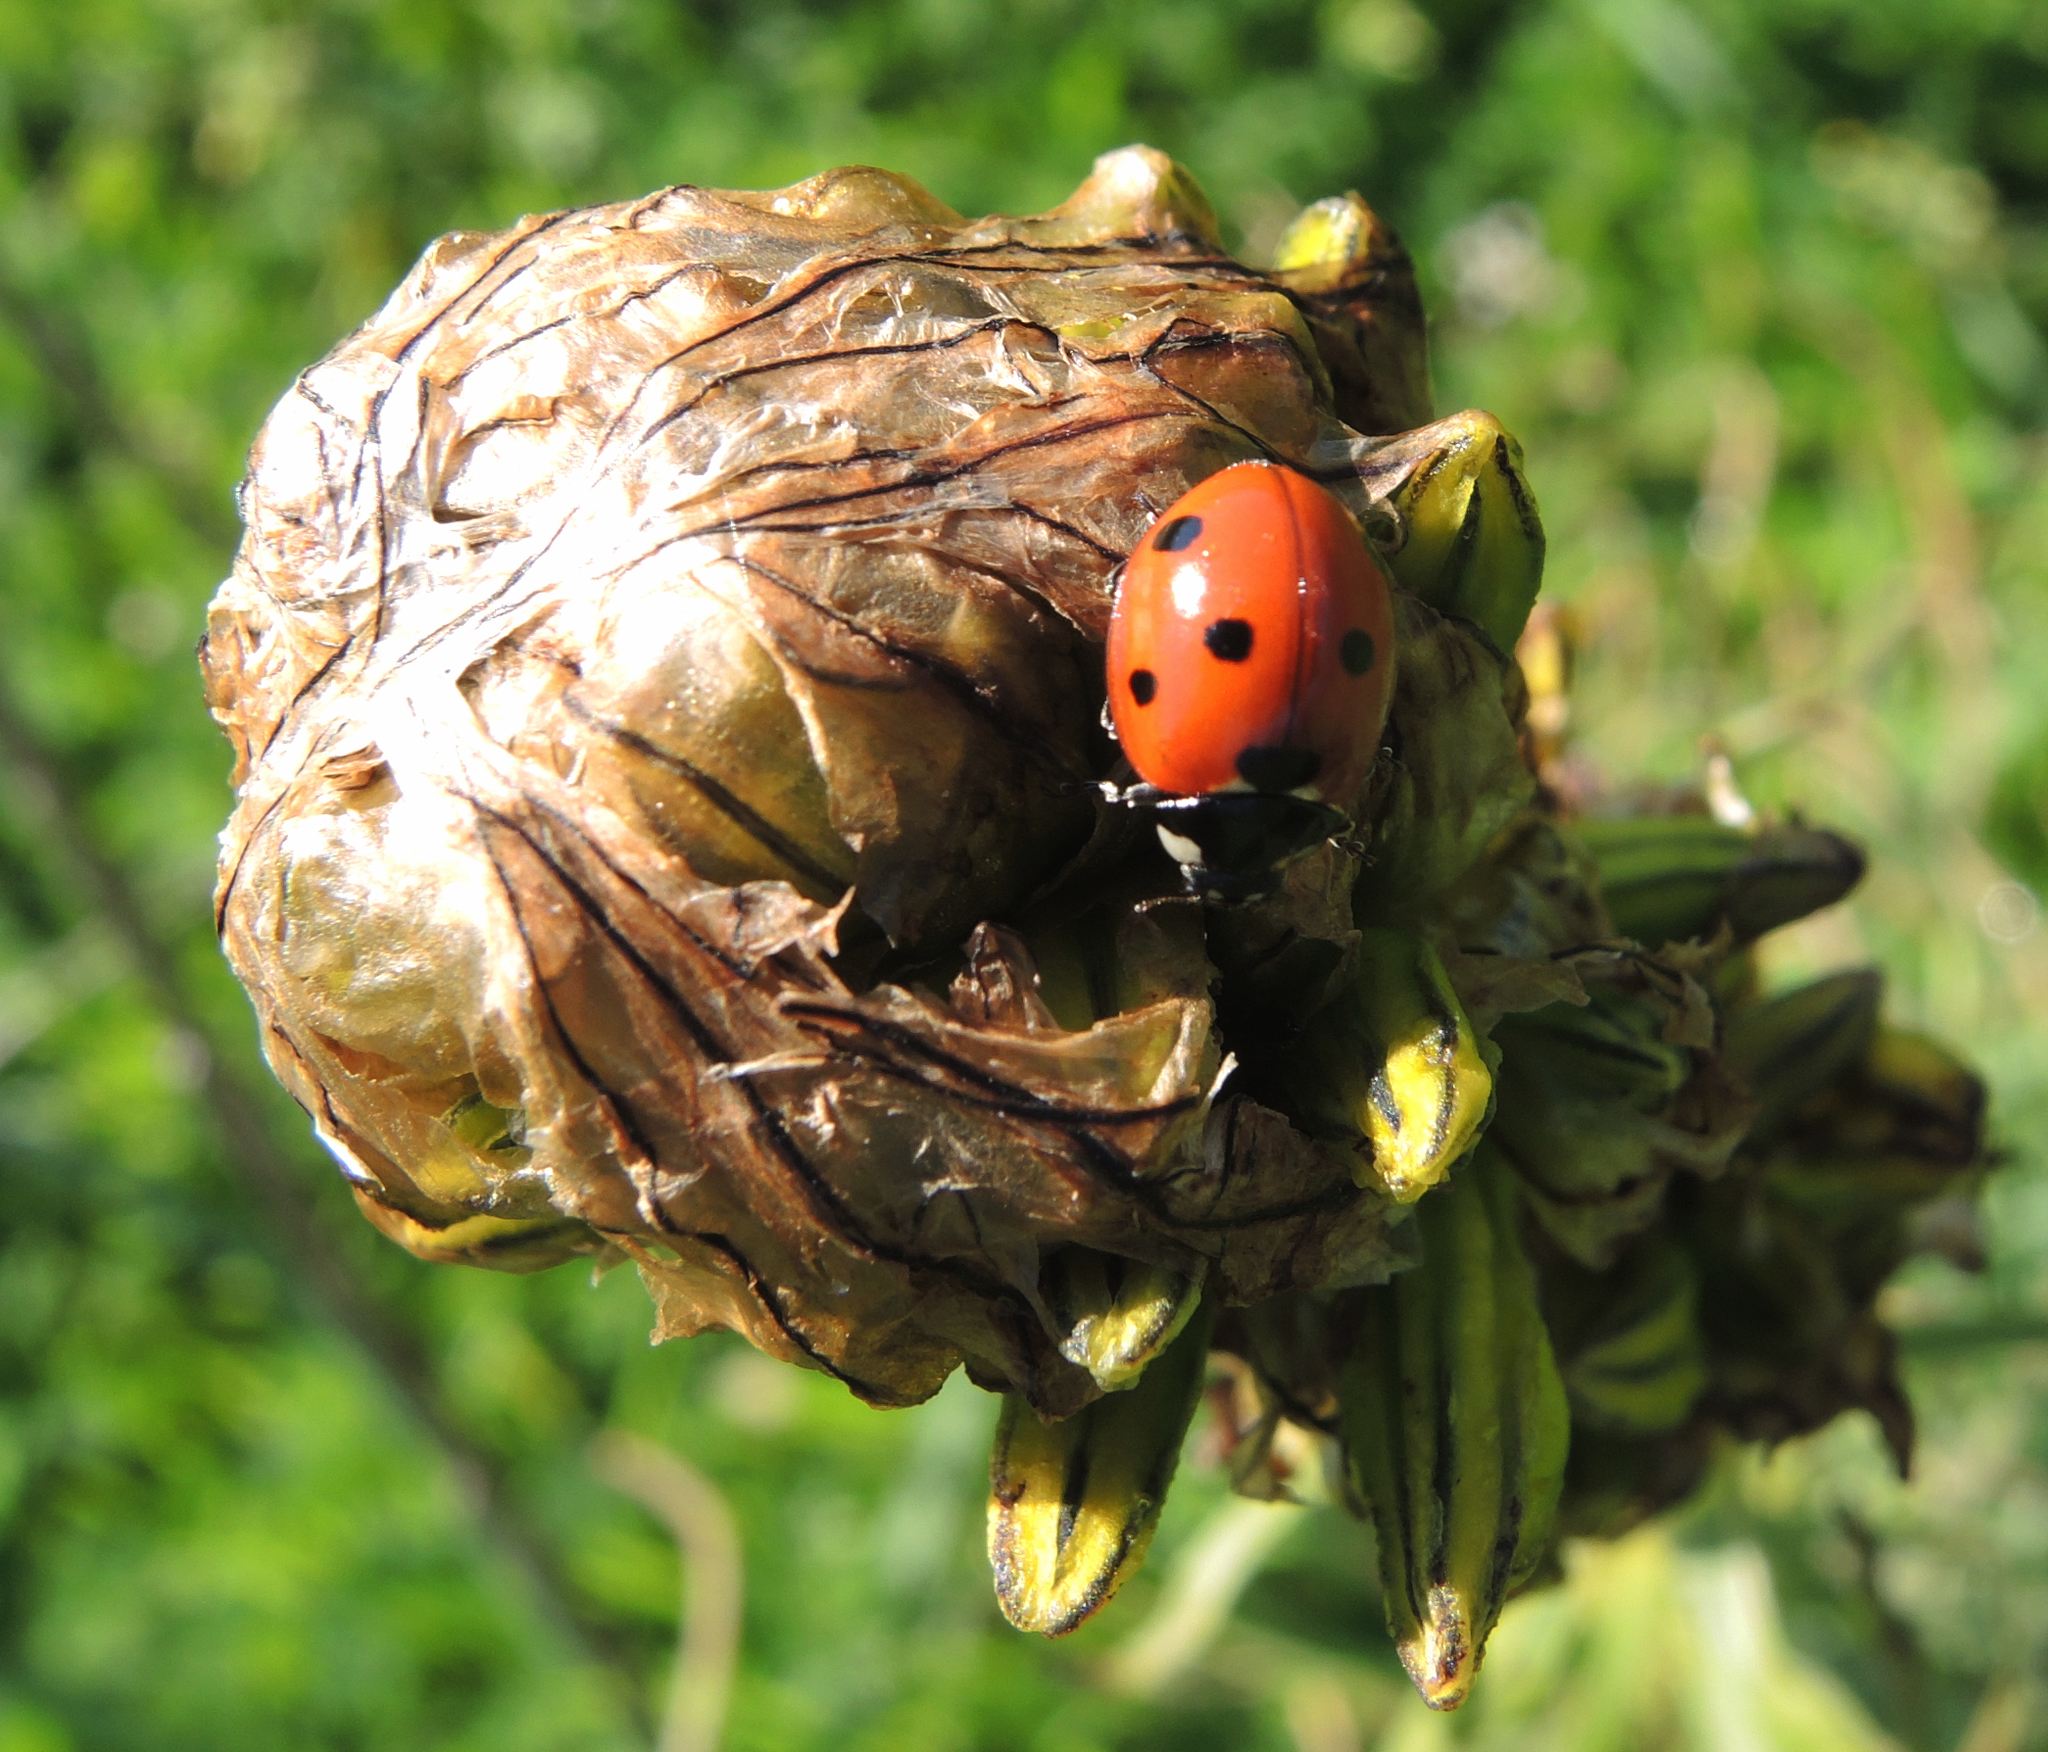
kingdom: Animalia
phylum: Arthropoda
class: Insecta
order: Coleoptera
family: Coccinellidae
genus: Coccinella
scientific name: Coccinella septempunctata
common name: Sevenspotted lady beetle
